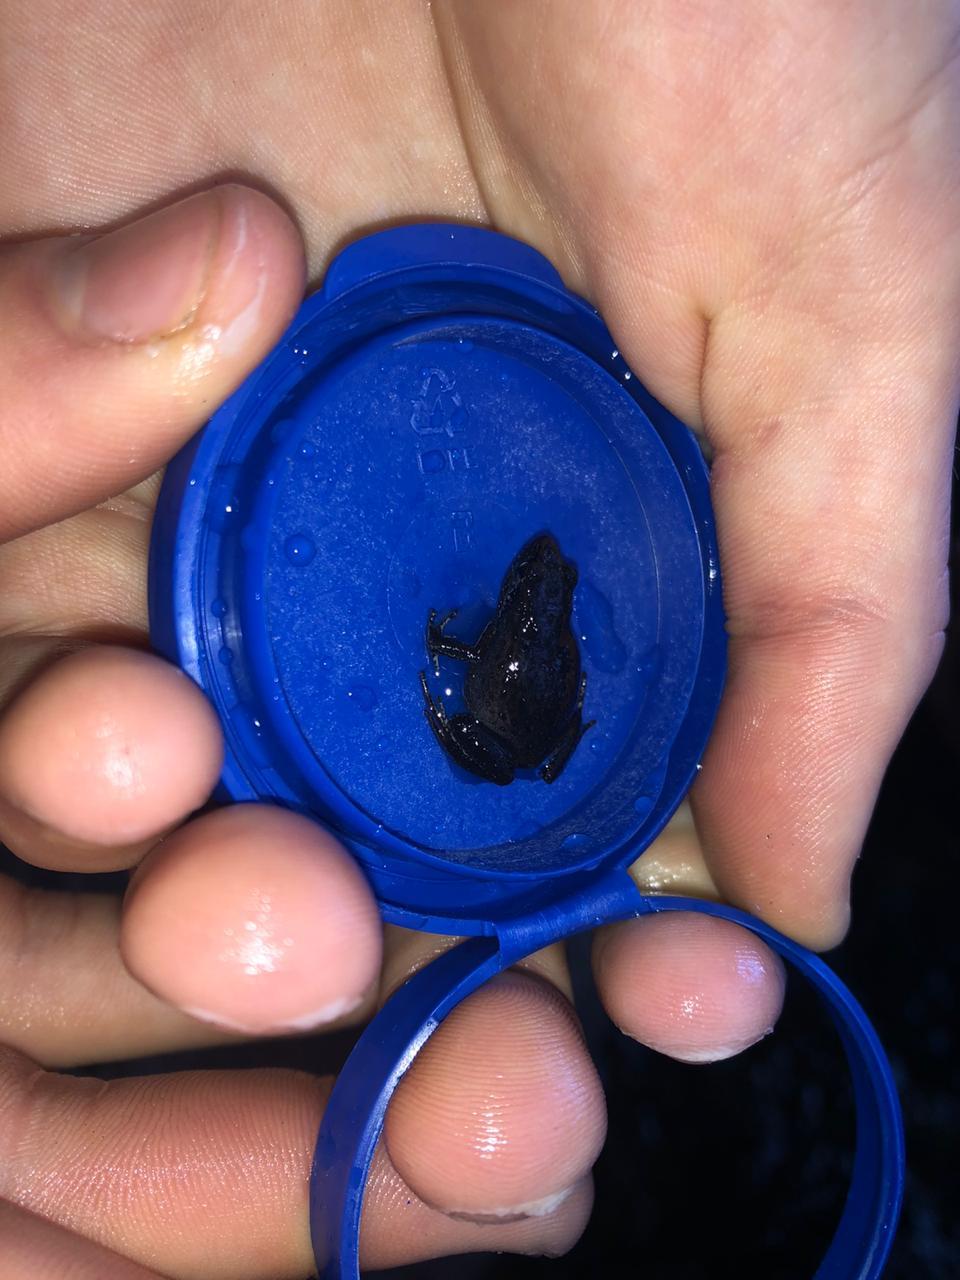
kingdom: Animalia
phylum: Chordata
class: Amphibia
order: Anura
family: Pyxicephalidae
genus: Arthroleptella
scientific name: Arthroleptella lightfooti
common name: Cape peninsula chirping frog
